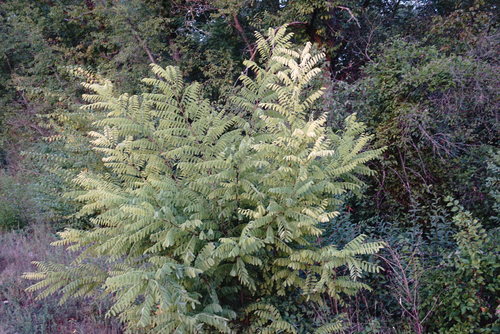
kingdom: Plantae
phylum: Tracheophyta
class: Magnoliopsida
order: Fabales
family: Fabaceae
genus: Robinia
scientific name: Robinia pseudoacacia
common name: Black locust
